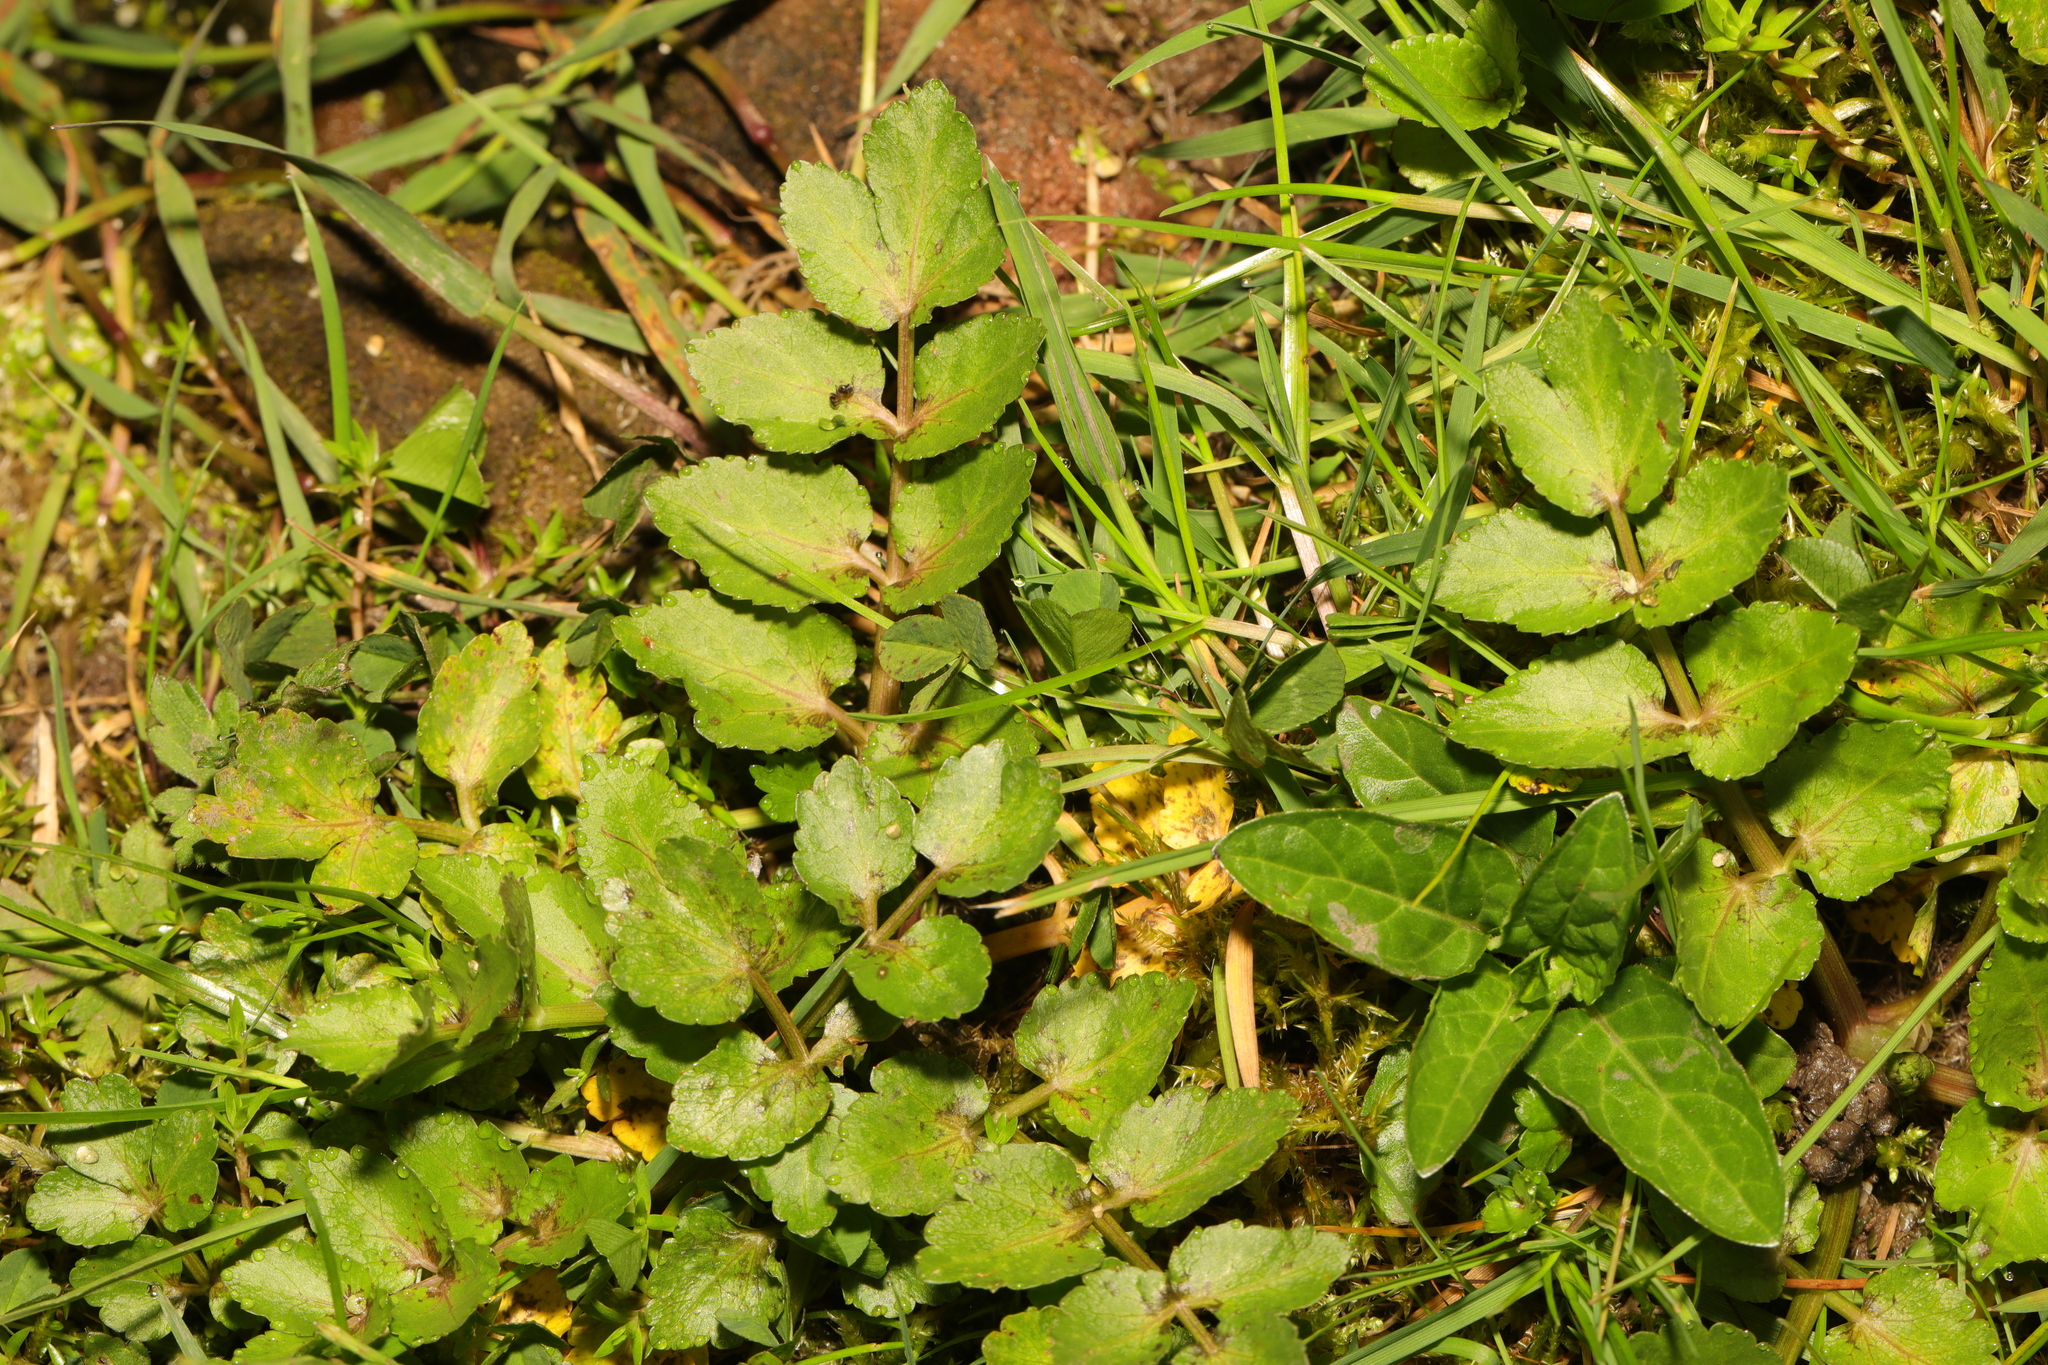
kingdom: Plantae
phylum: Tracheophyta
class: Magnoliopsida
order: Apiales
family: Apiaceae
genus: Helosciadium
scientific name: Helosciadium nodiflorum
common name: Fool's-watercress
